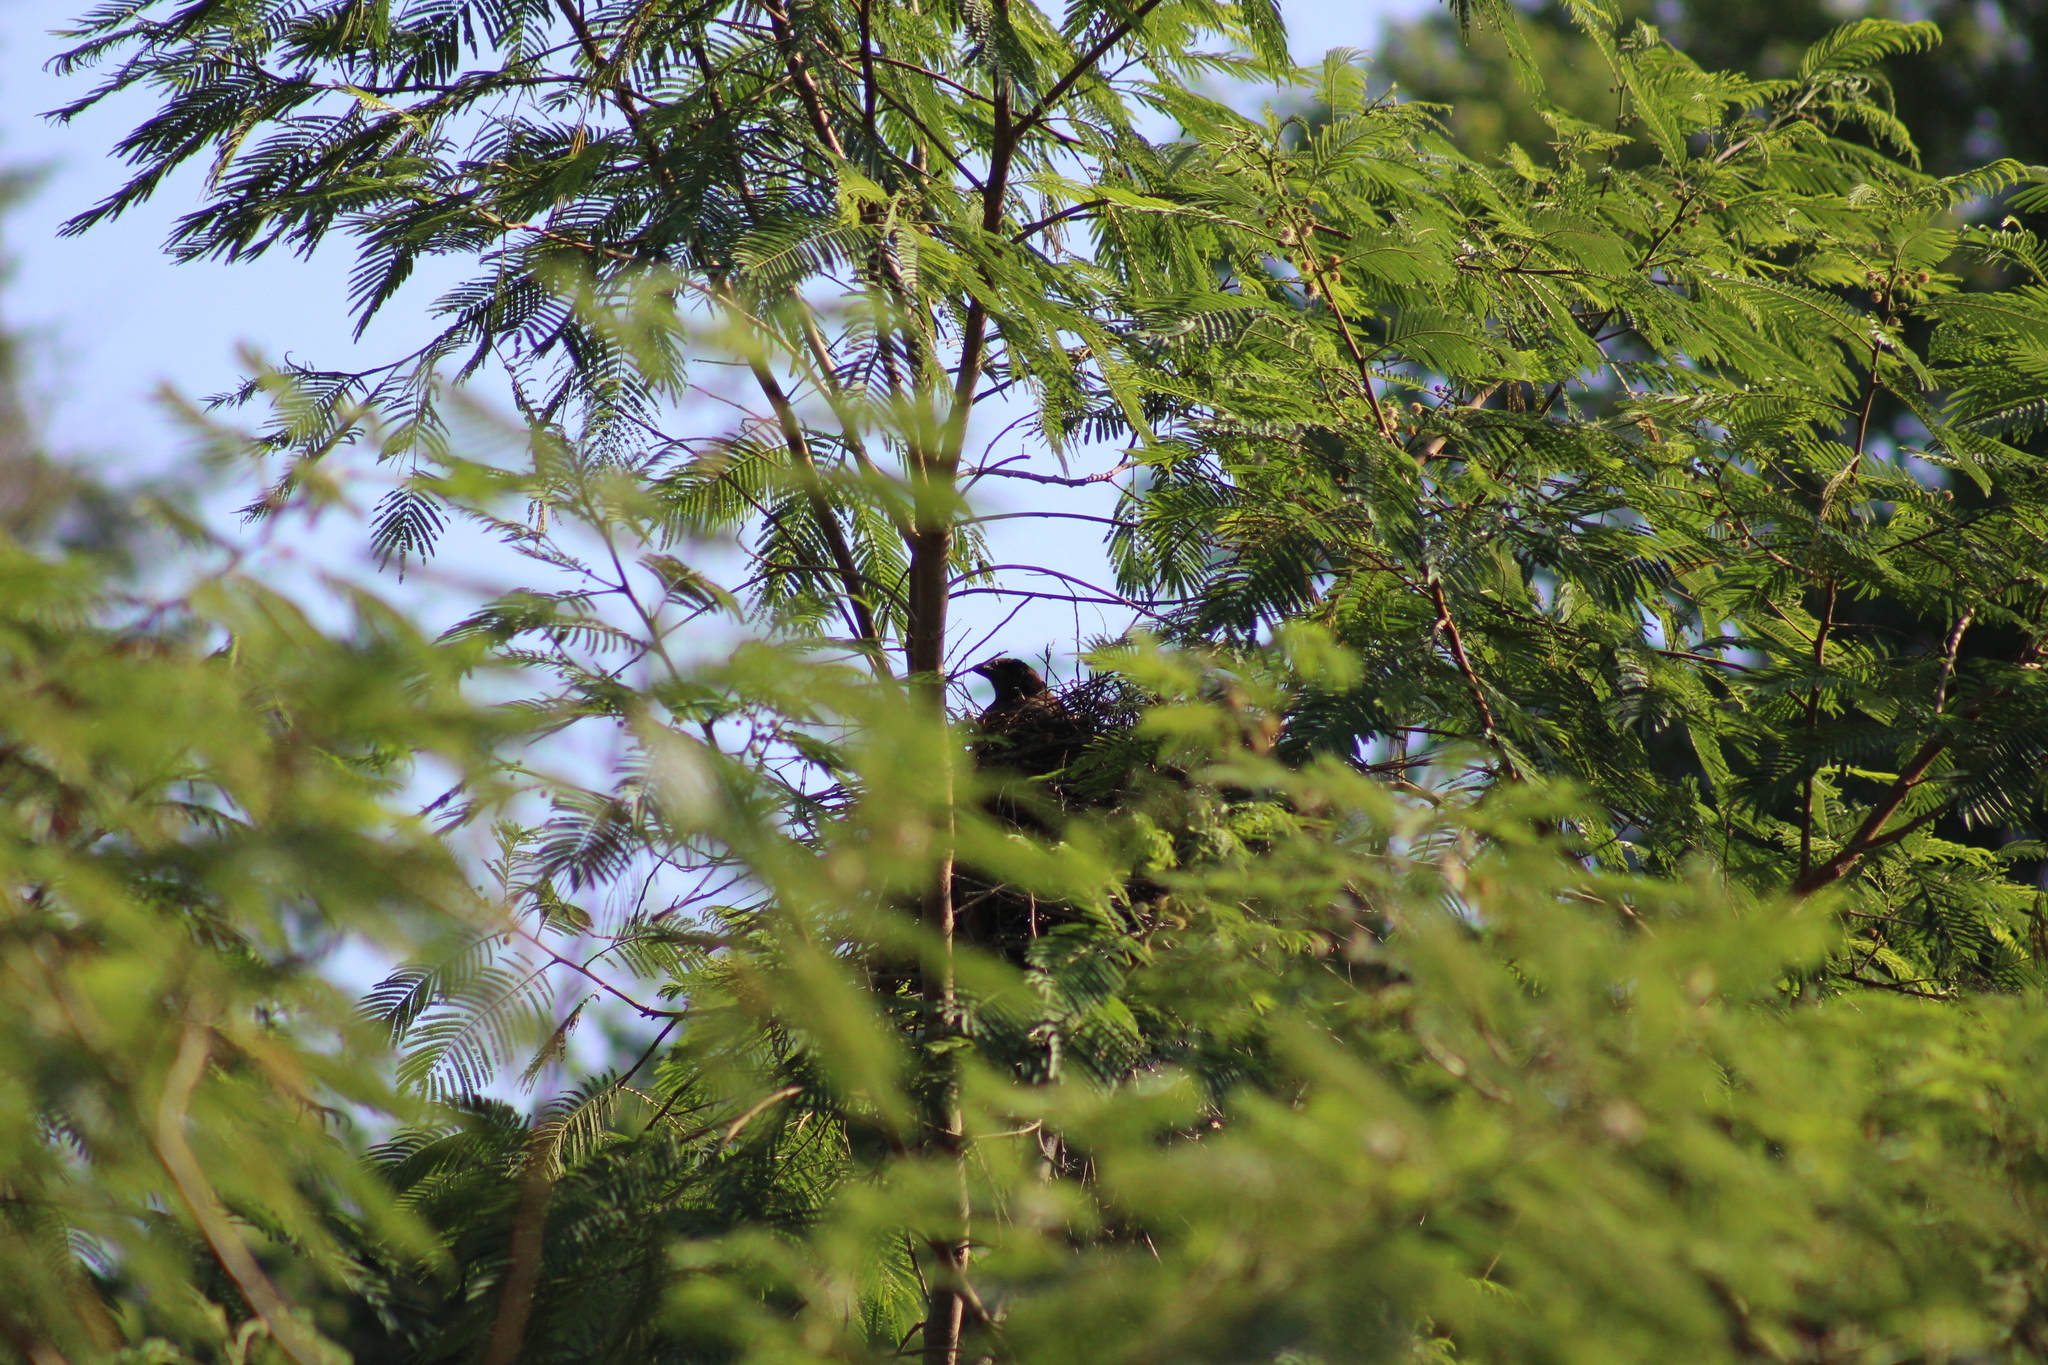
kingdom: Animalia
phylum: Chordata
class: Aves
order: Passeriformes
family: Corvidae
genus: Psilorhinus
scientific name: Psilorhinus morio
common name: Brown jay
